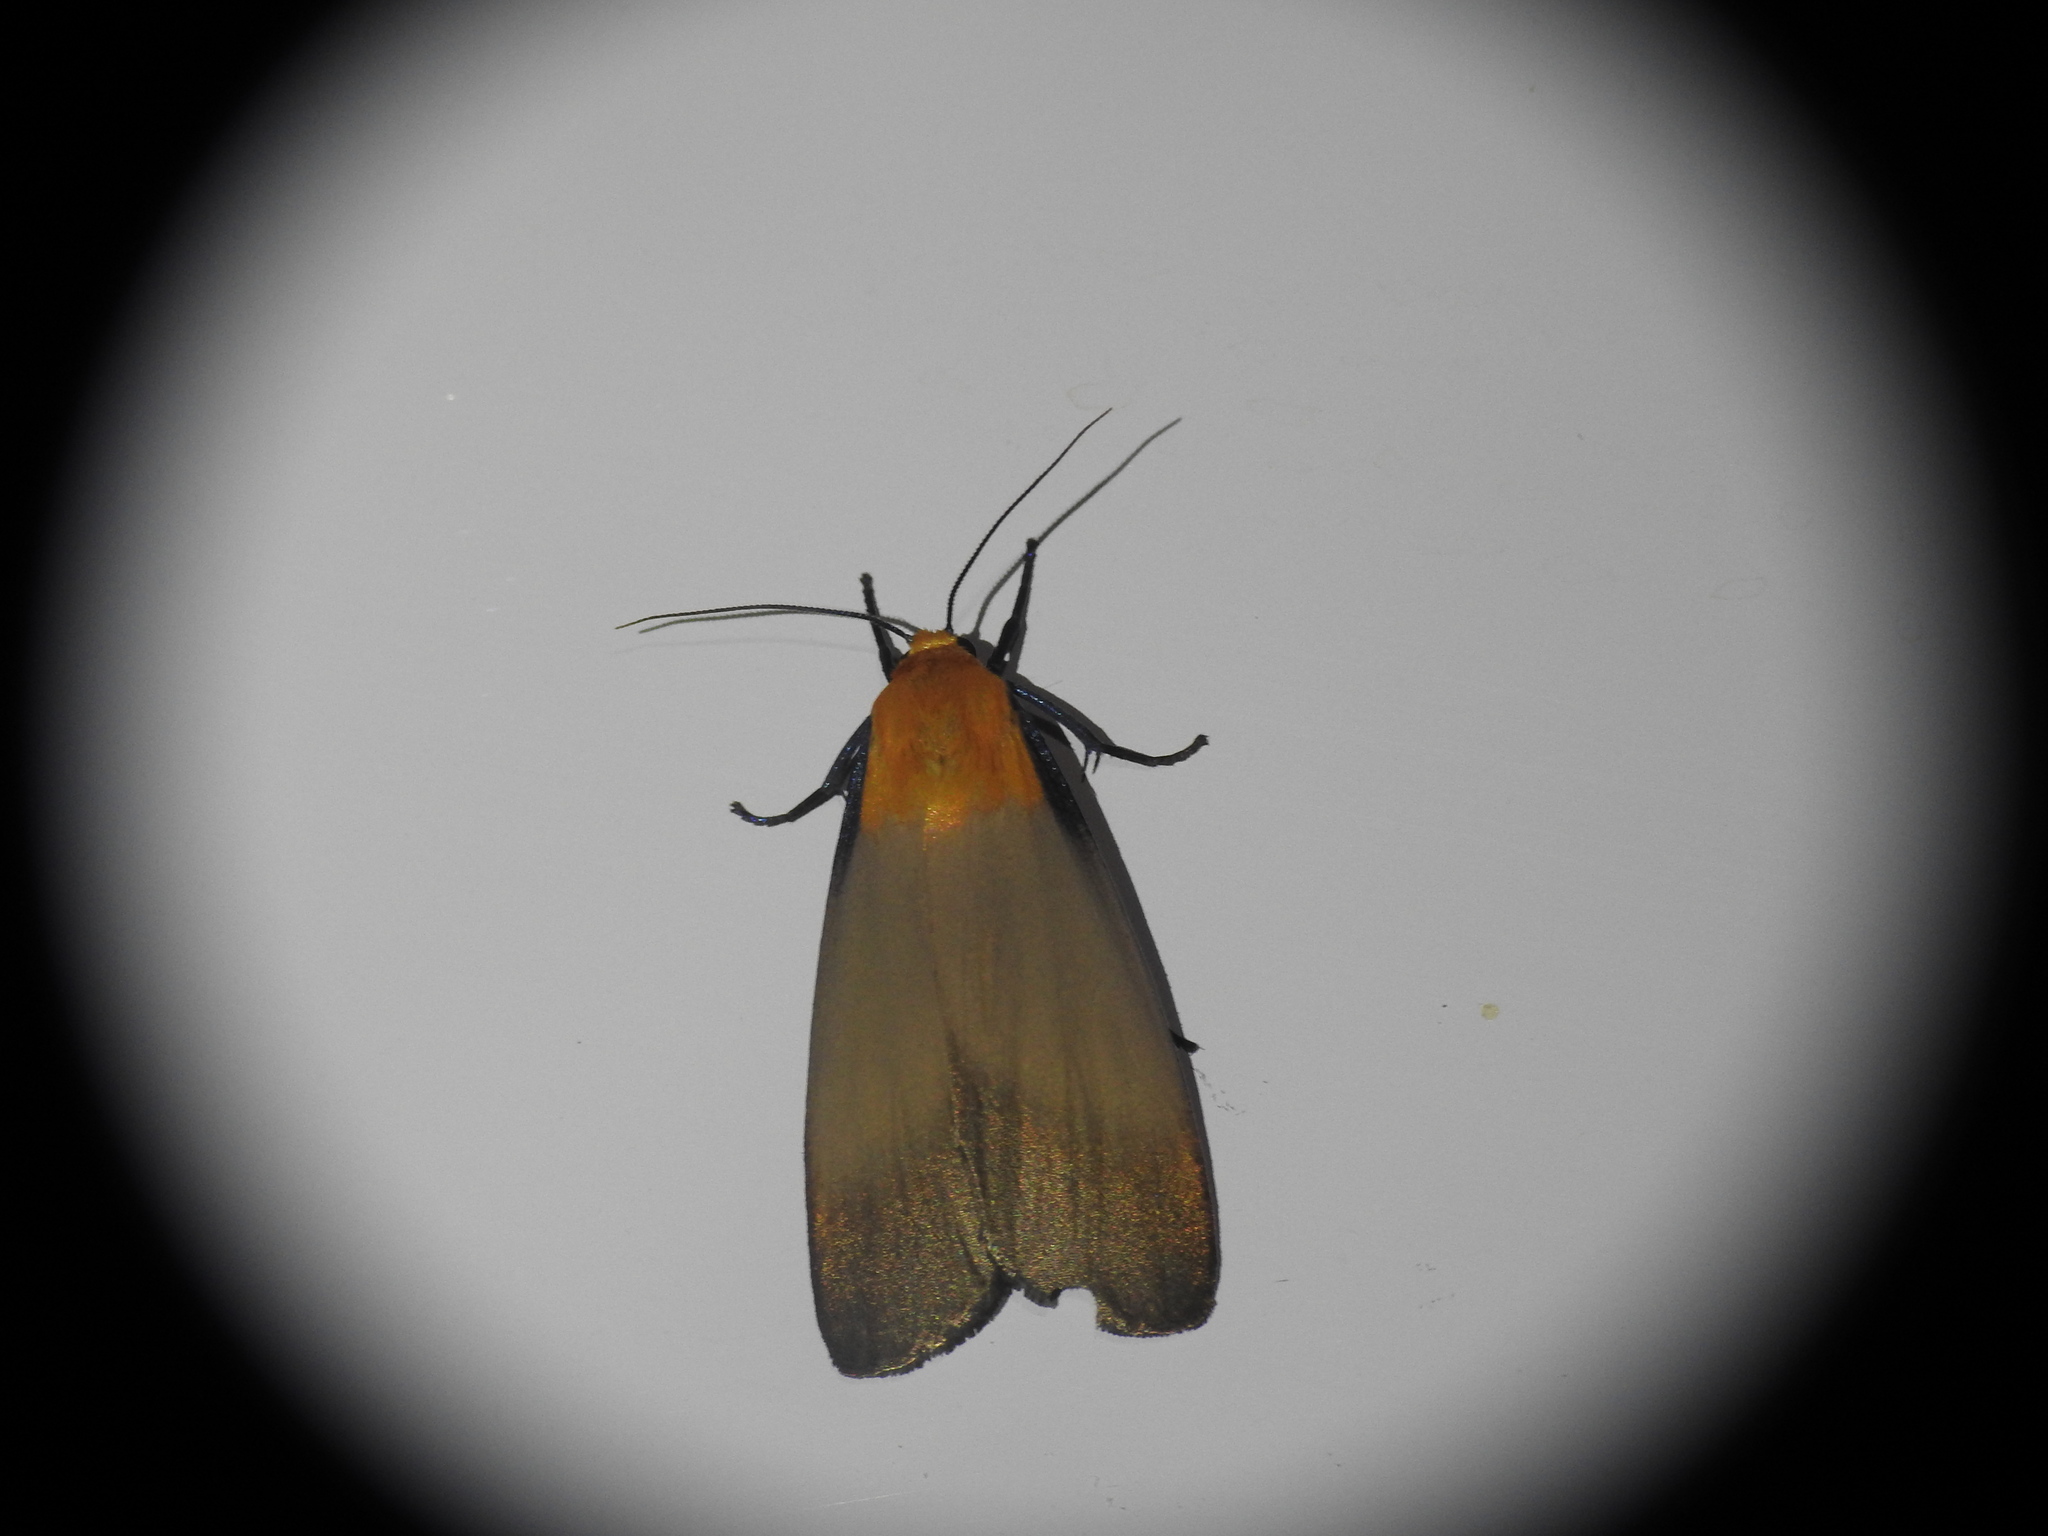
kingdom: Animalia
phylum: Arthropoda
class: Insecta
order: Lepidoptera
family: Erebidae
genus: Lithosia
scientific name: Lithosia quadra
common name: Four-spotted footman
